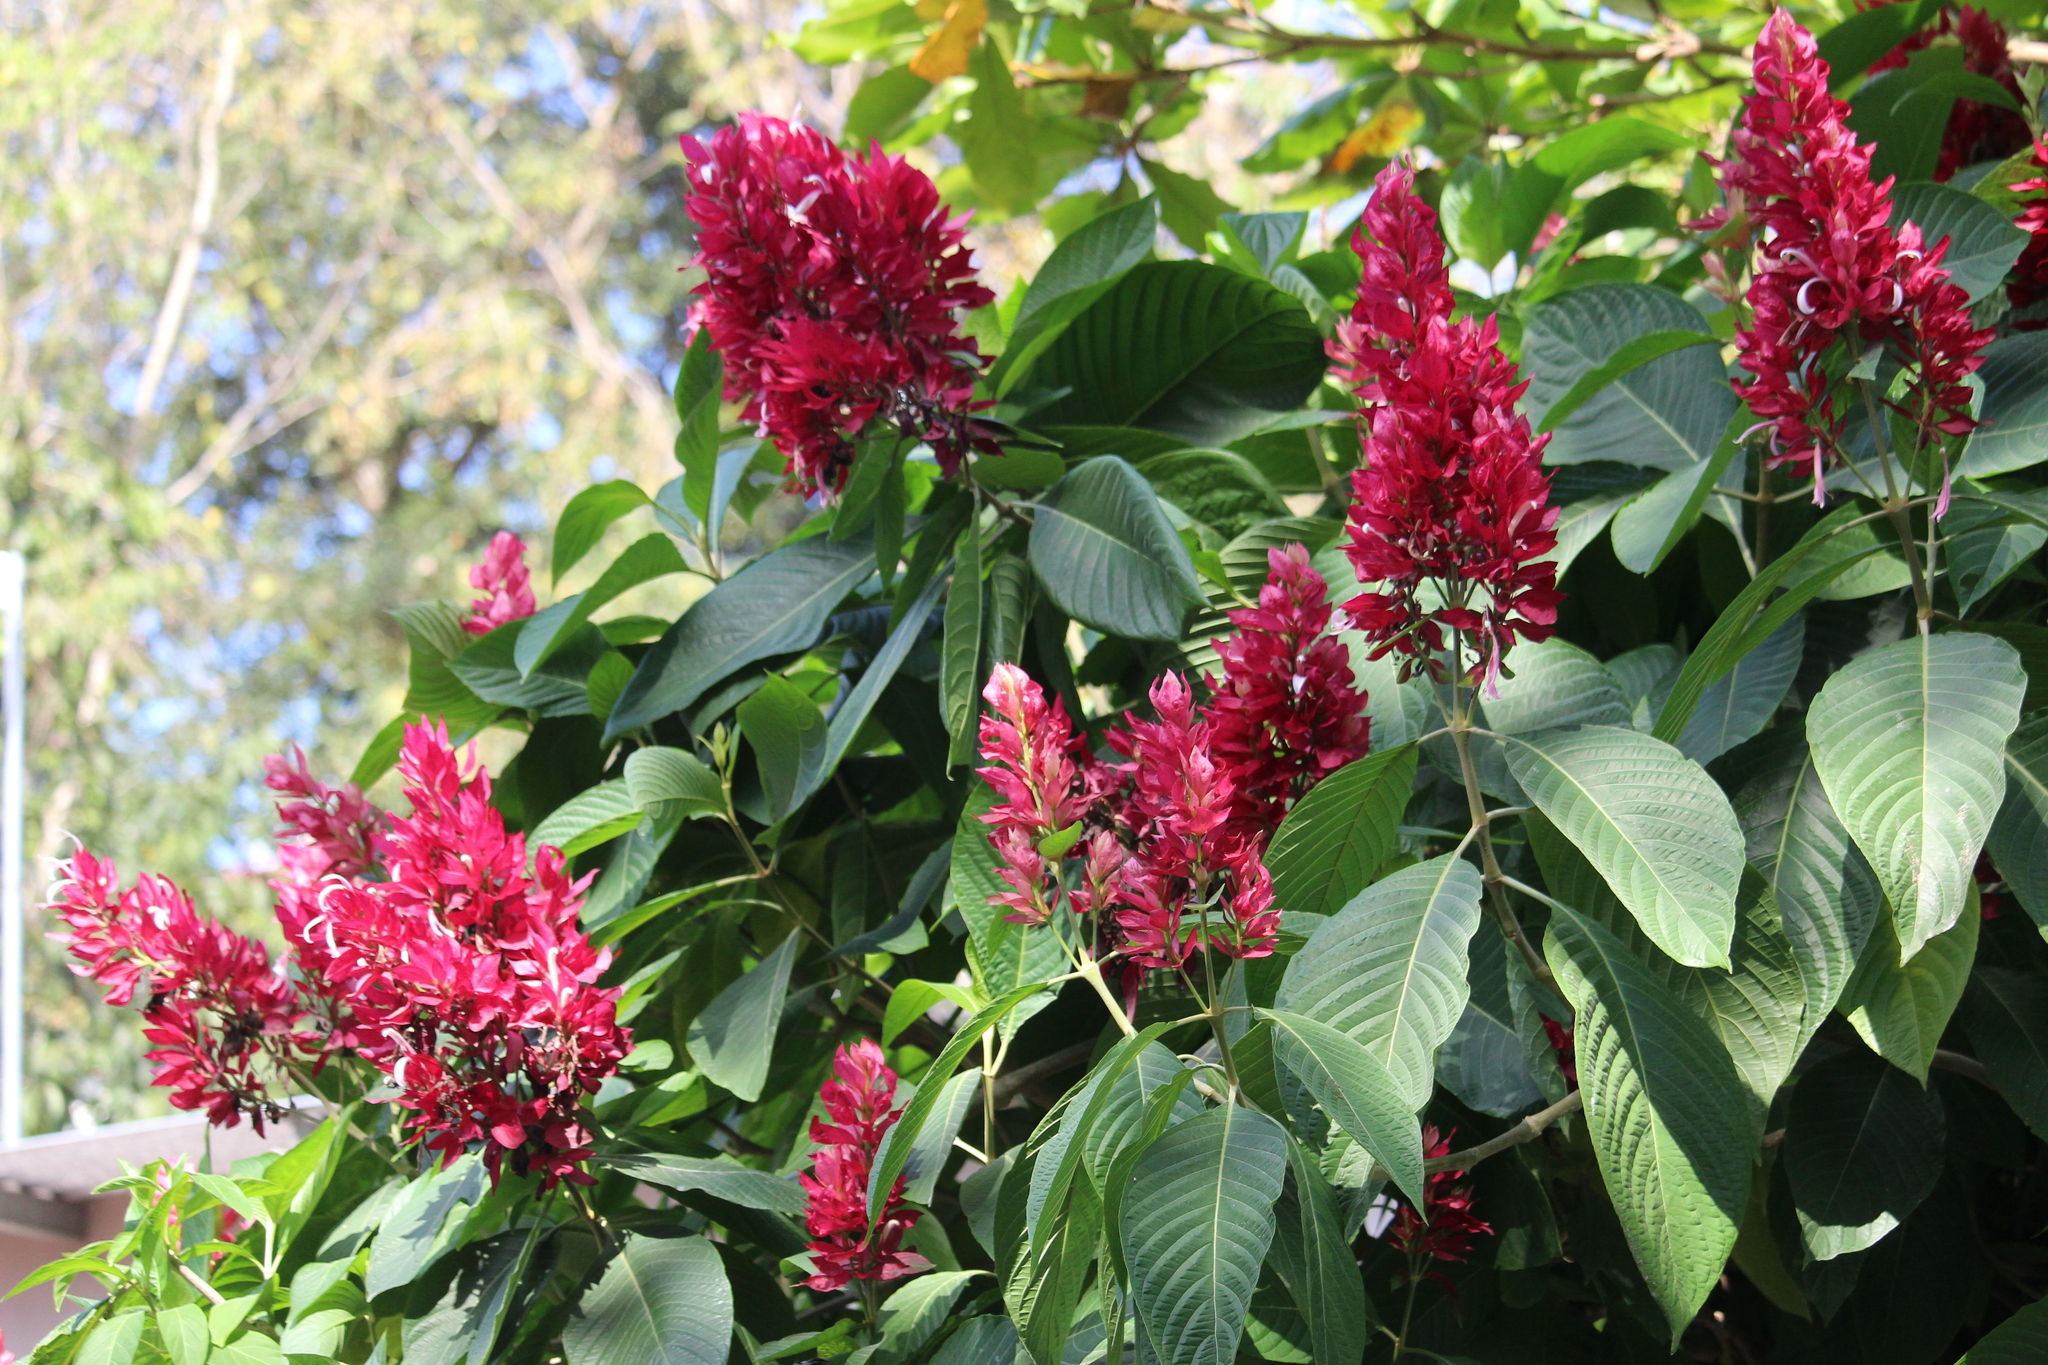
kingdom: Plantae
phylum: Tracheophyta
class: Magnoliopsida
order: Lamiales
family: Acanthaceae
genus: Megaskepasma
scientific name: Megaskepasma erythrochlamys
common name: Brazilian red-cloak
